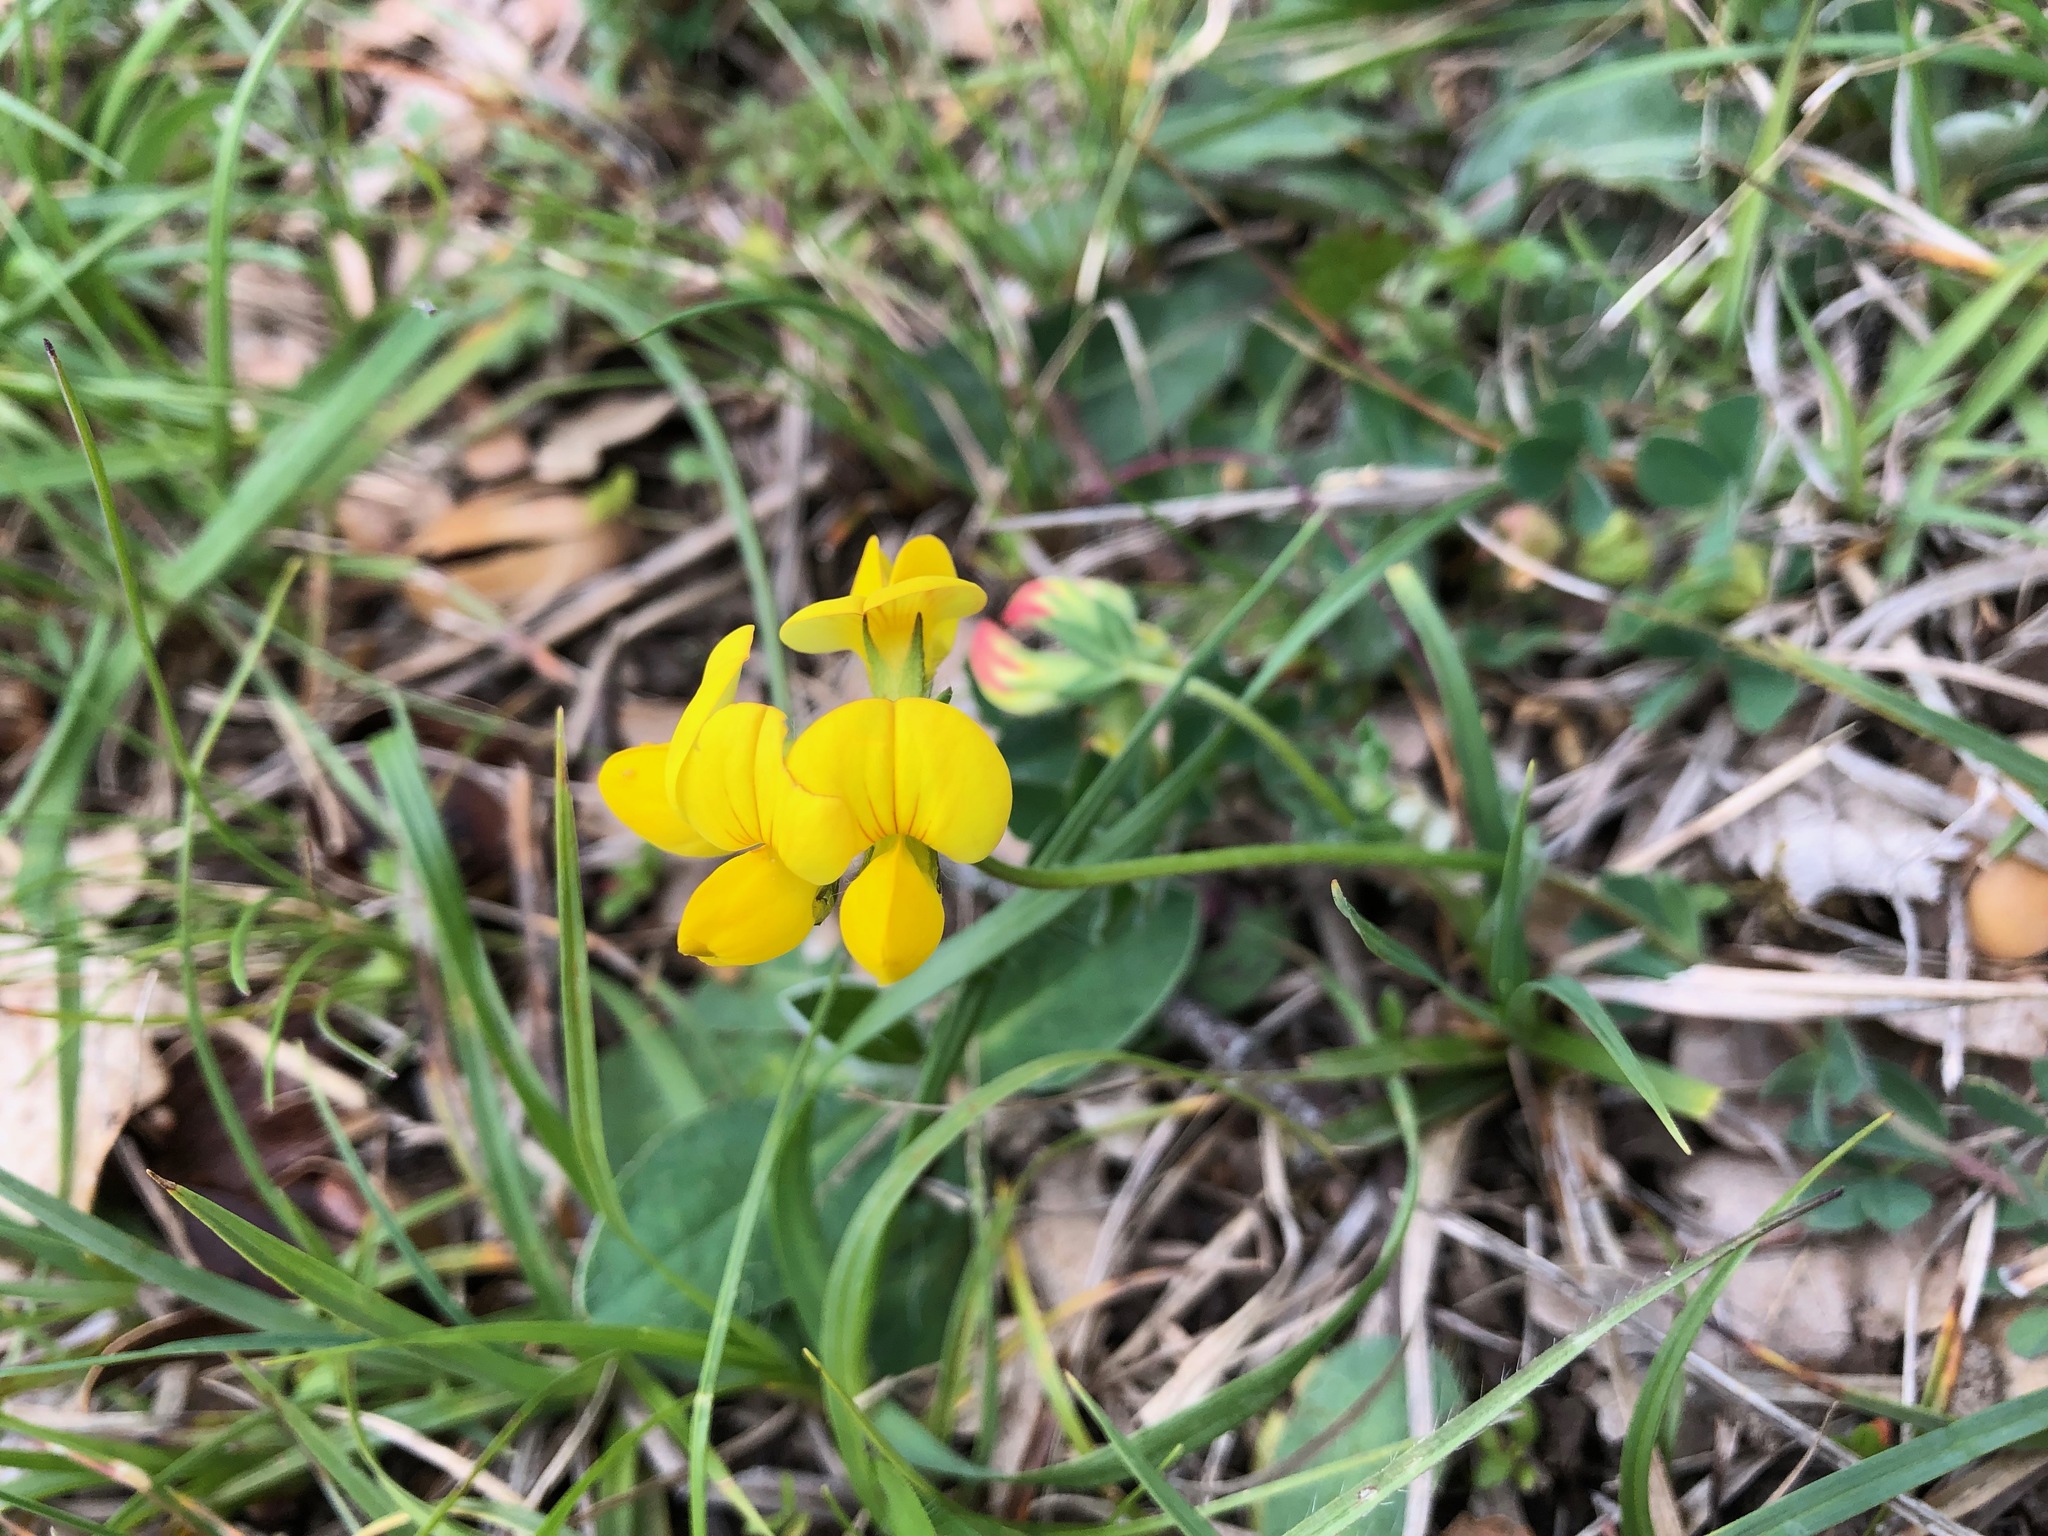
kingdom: Plantae
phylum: Tracheophyta
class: Magnoliopsida
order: Fabales
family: Fabaceae
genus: Lotus
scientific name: Lotus corniculatus
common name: Common bird's-foot-trefoil
